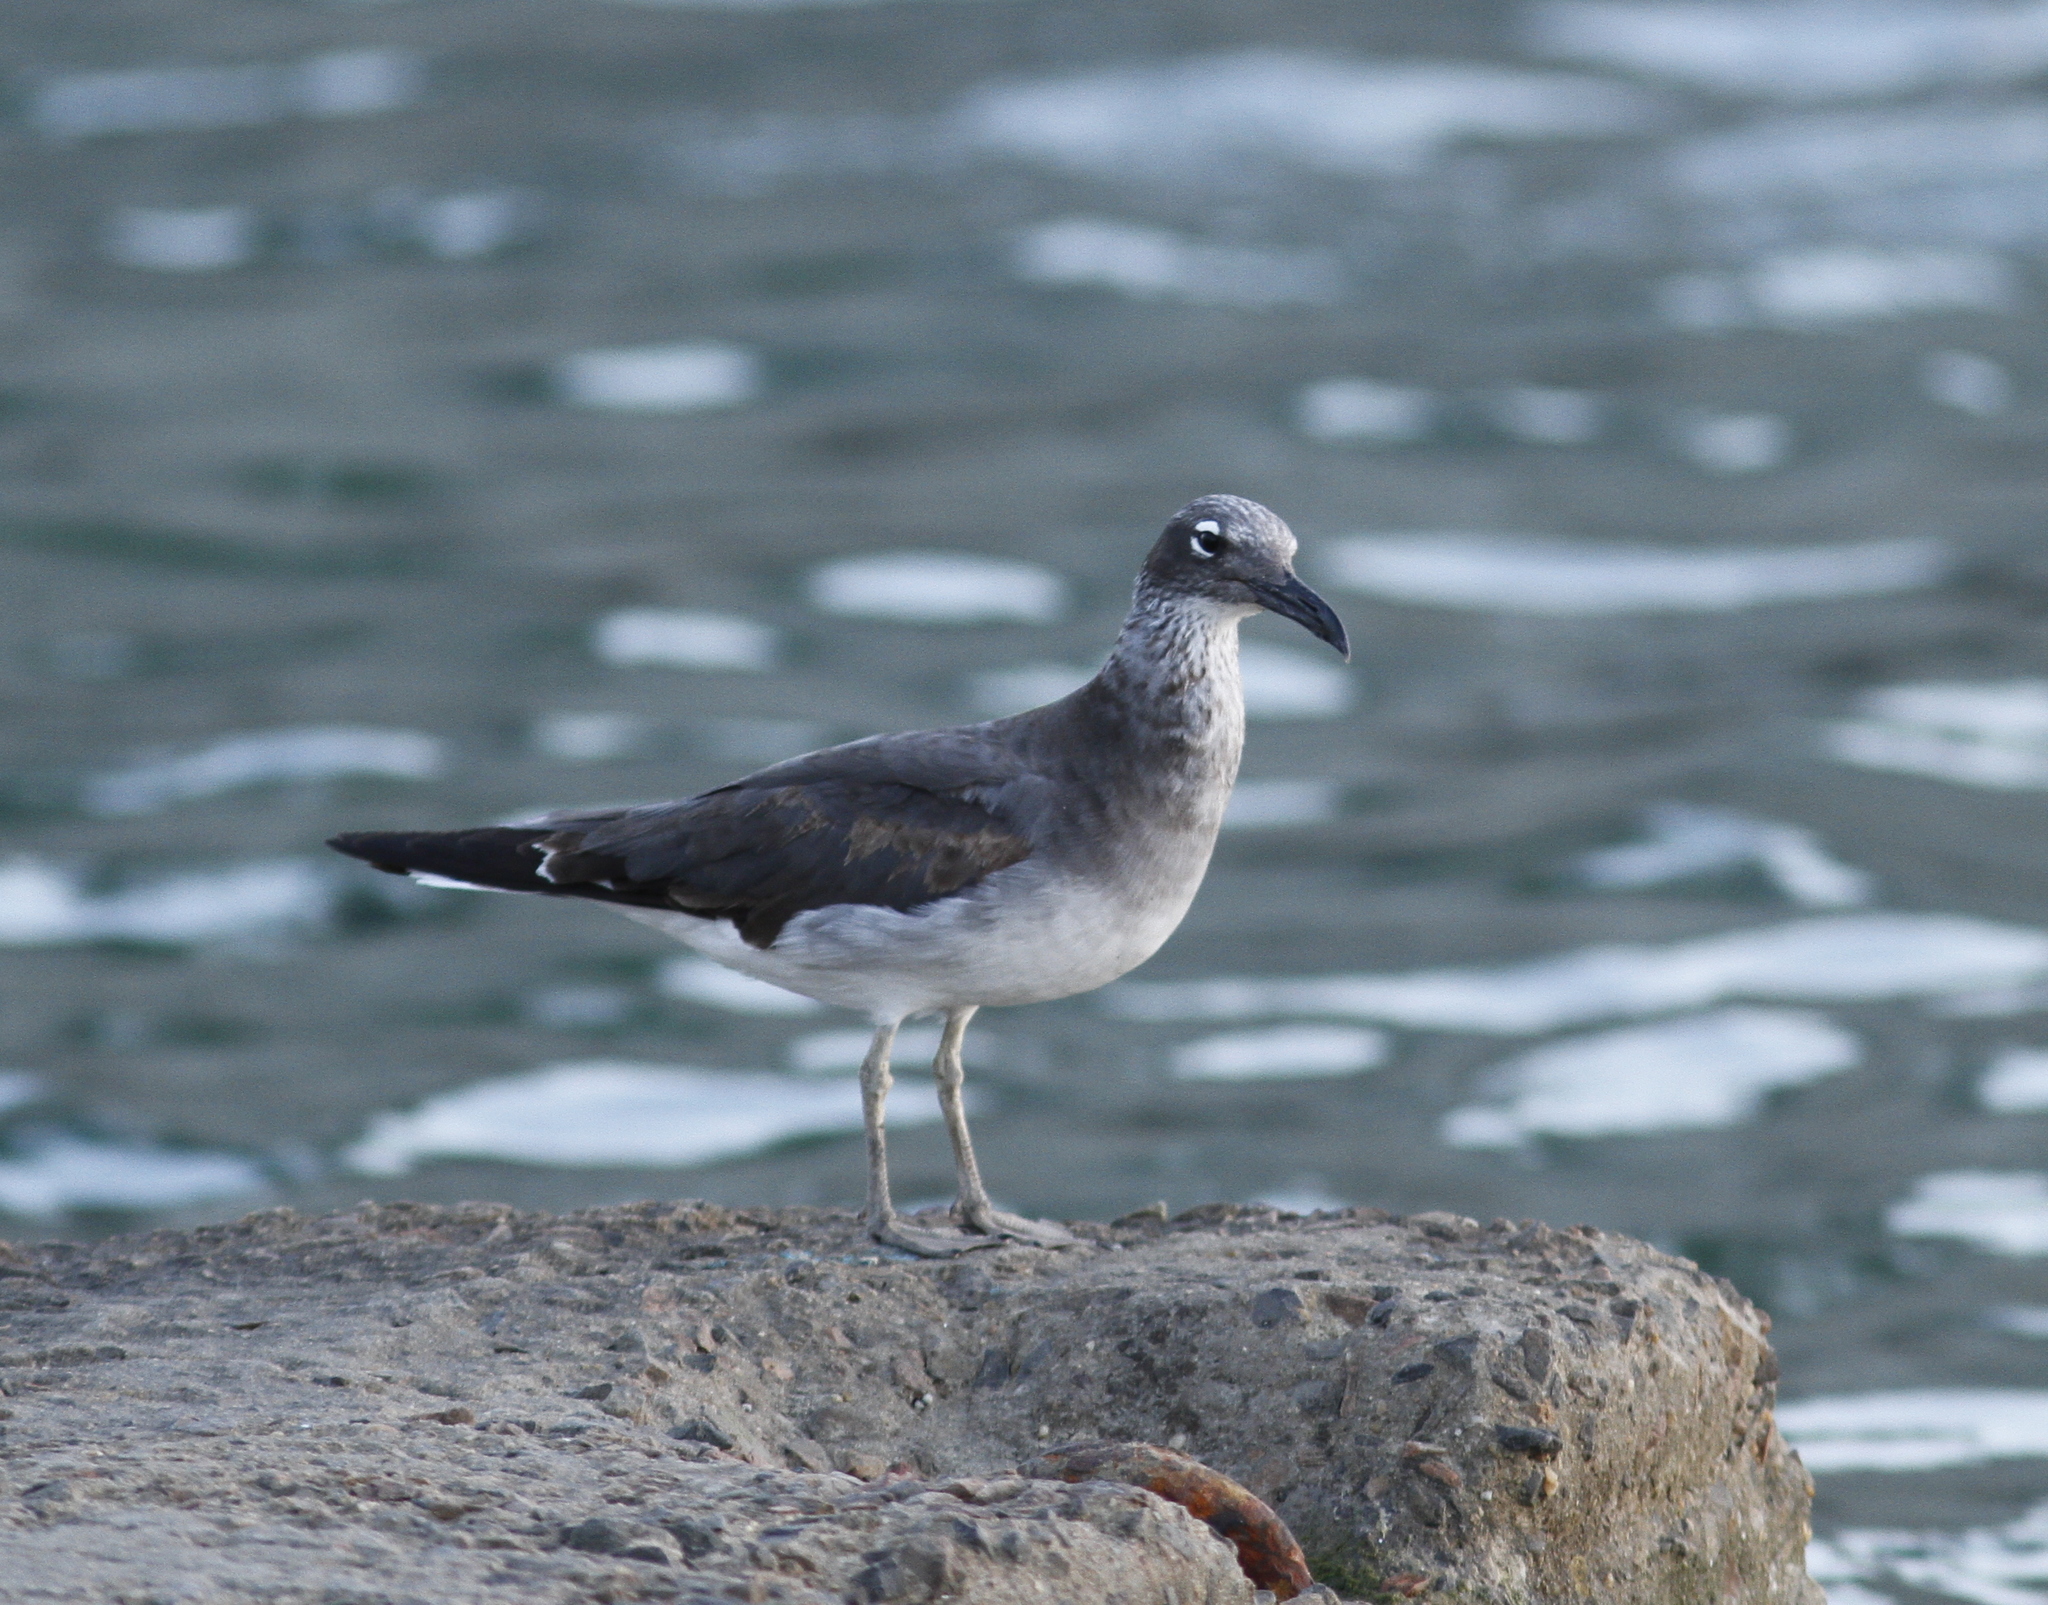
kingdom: Animalia
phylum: Chordata
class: Aves
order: Charadriiformes
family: Laridae
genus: Ichthyaetus
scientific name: Ichthyaetus leucophthalmus
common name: White-eyed gull
